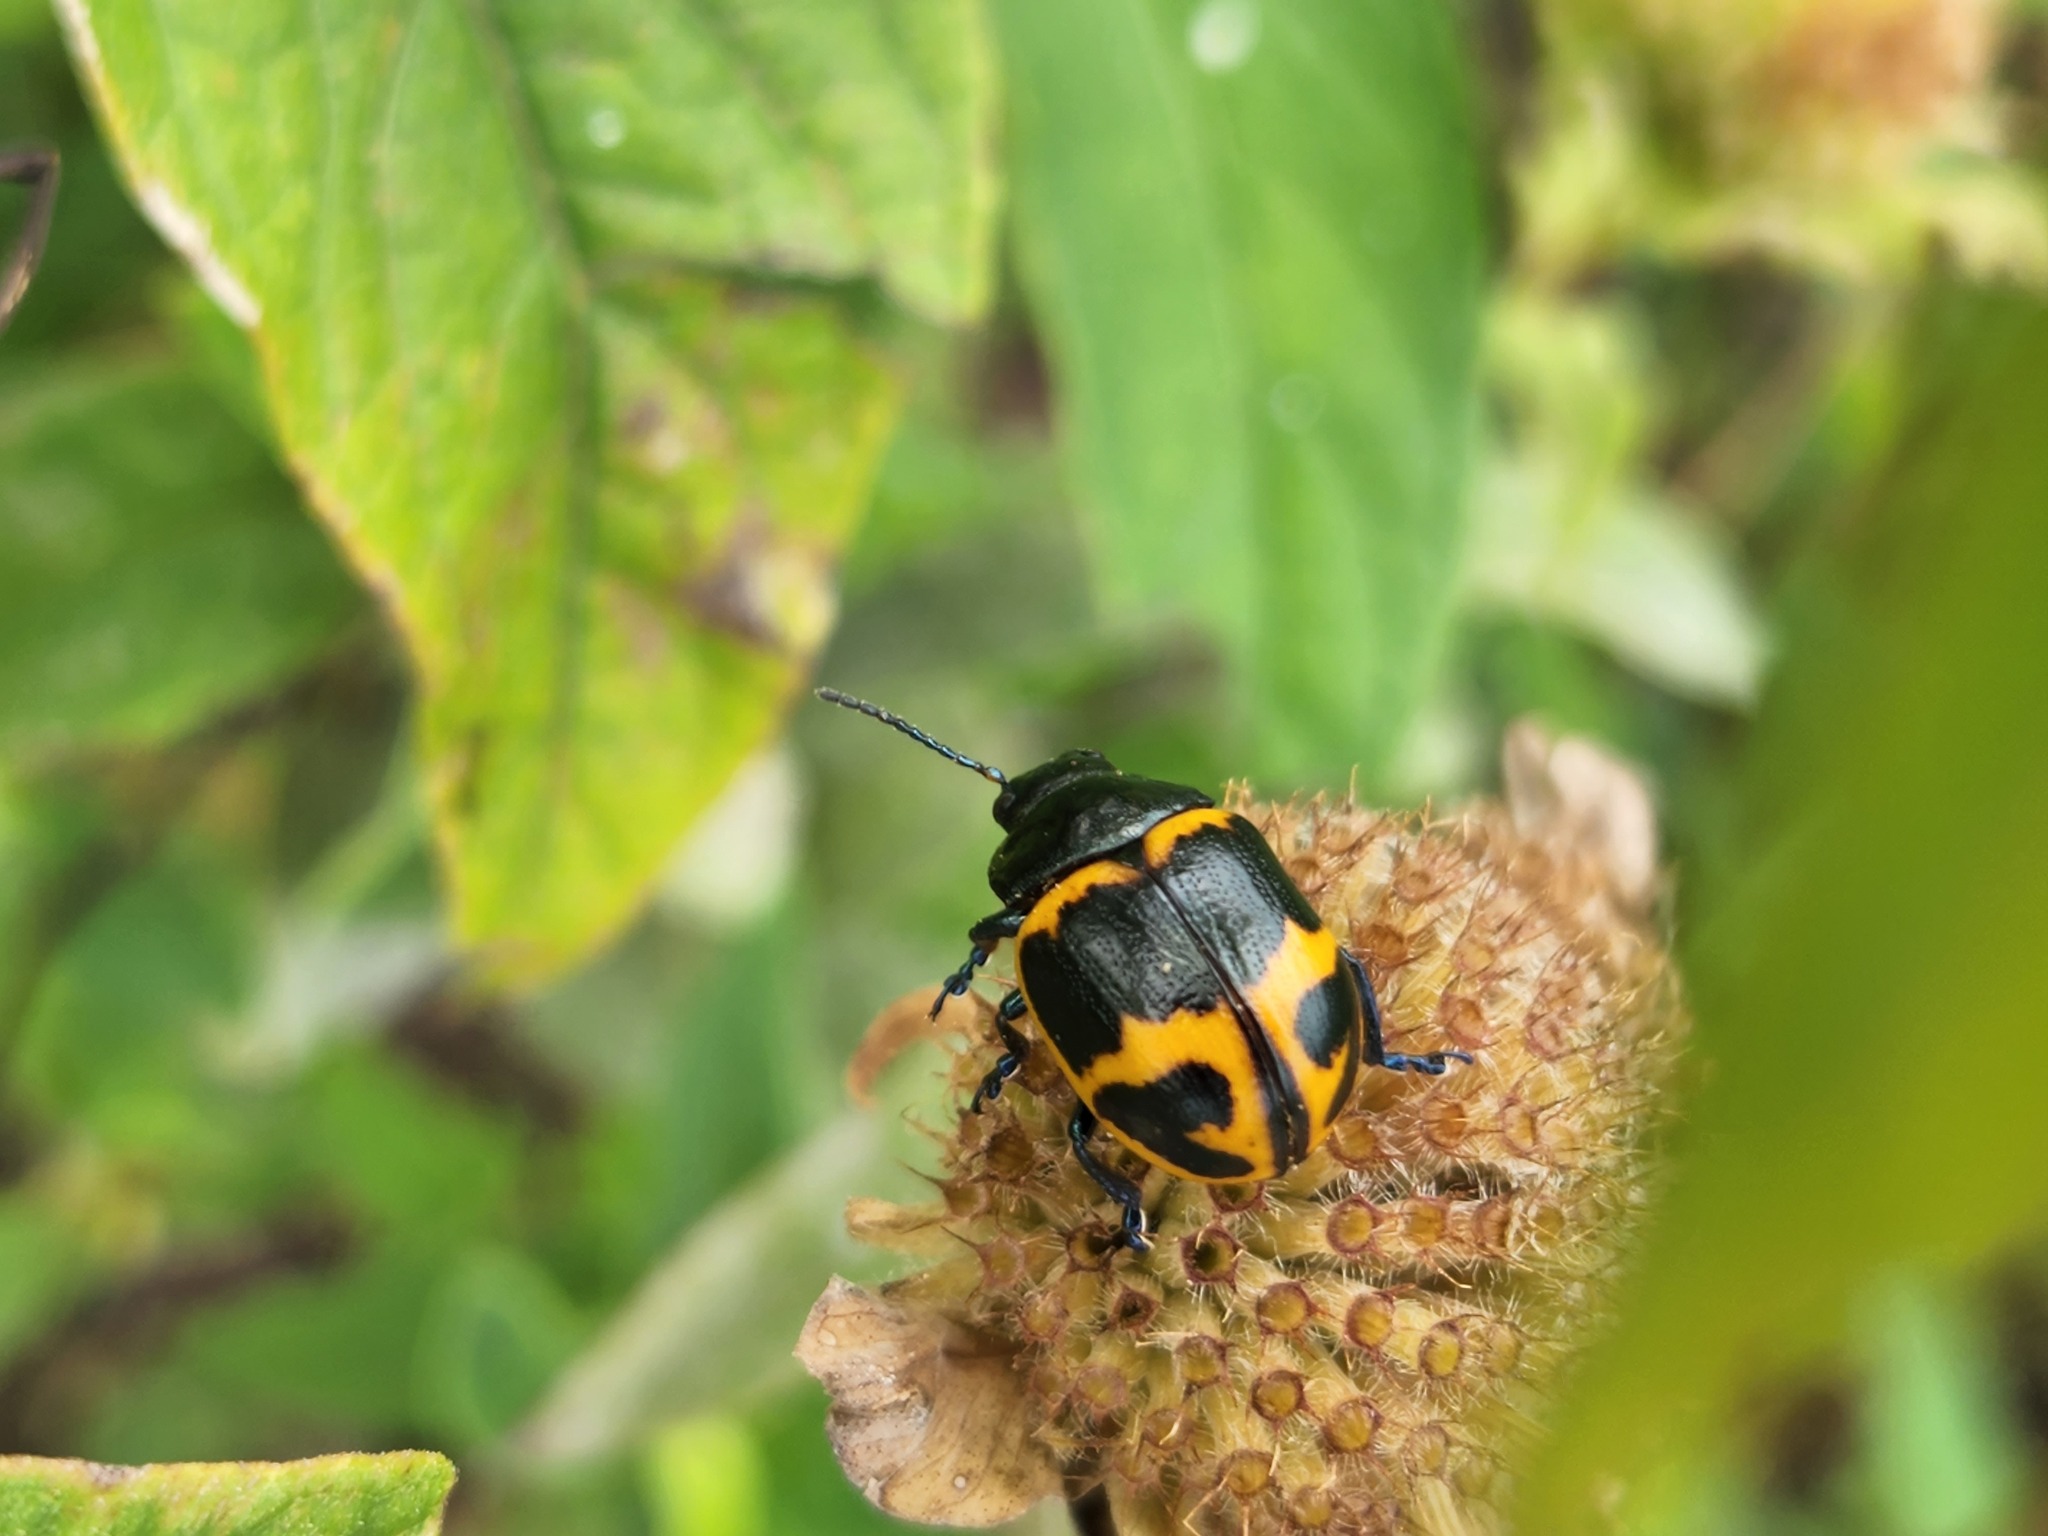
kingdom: Animalia
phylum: Arthropoda
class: Insecta
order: Coleoptera
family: Chrysomelidae
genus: Labidomera
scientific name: Labidomera clivicollis
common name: Swamp milkweed leaf beetle
